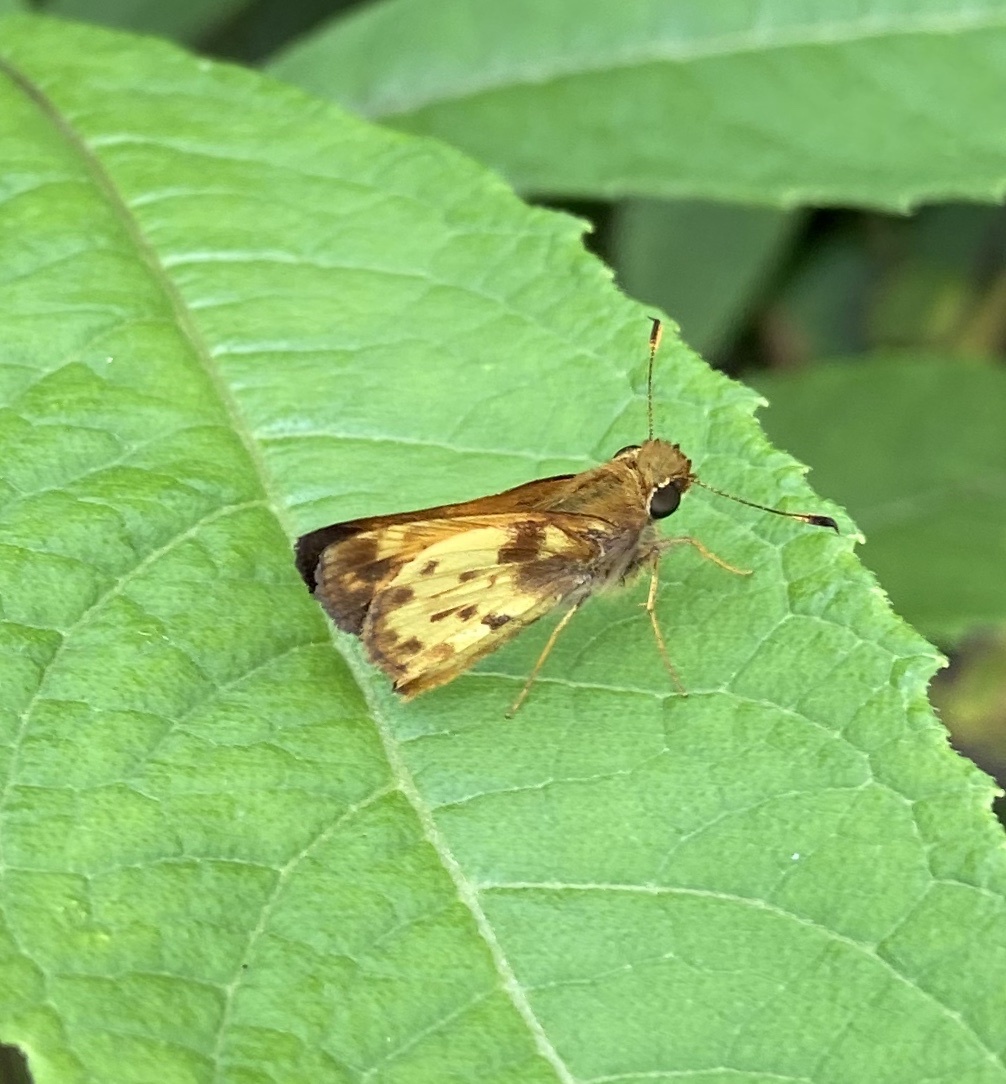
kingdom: Animalia
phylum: Arthropoda
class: Insecta
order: Lepidoptera
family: Hesperiidae
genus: Lon
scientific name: Lon zabulon
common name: Zabulon skipper
